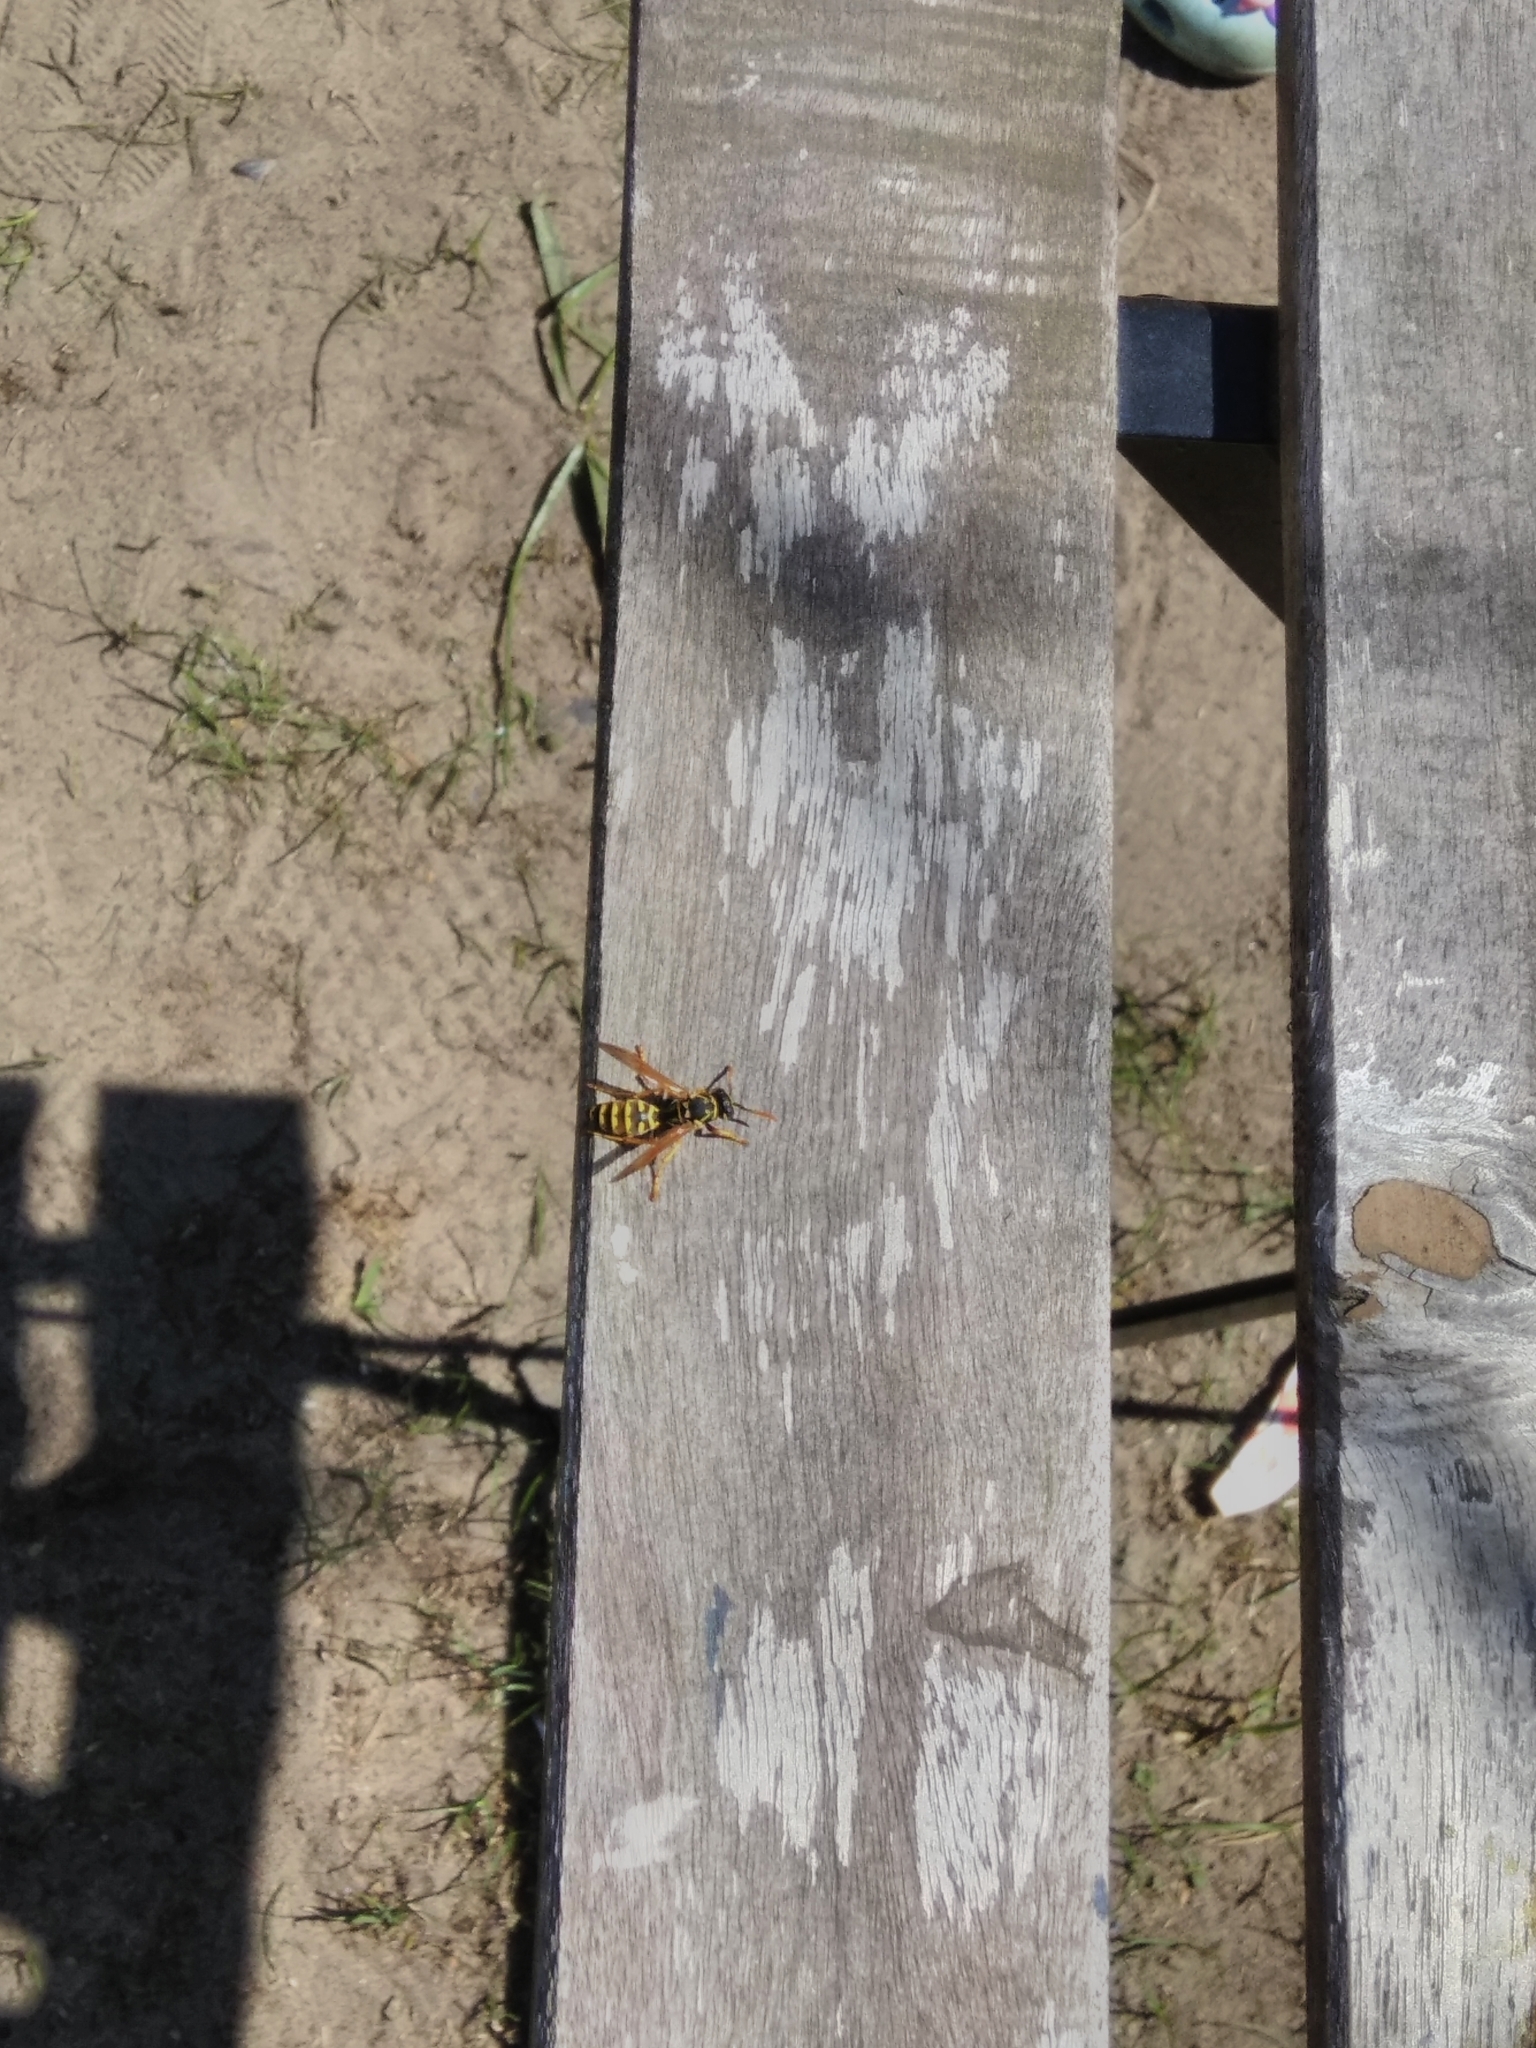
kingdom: Animalia
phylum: Arthropoda
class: Insecta
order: Hymenoptera
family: Eumenidae
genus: Polistes
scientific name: Polistes dominula
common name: Paper wasp
